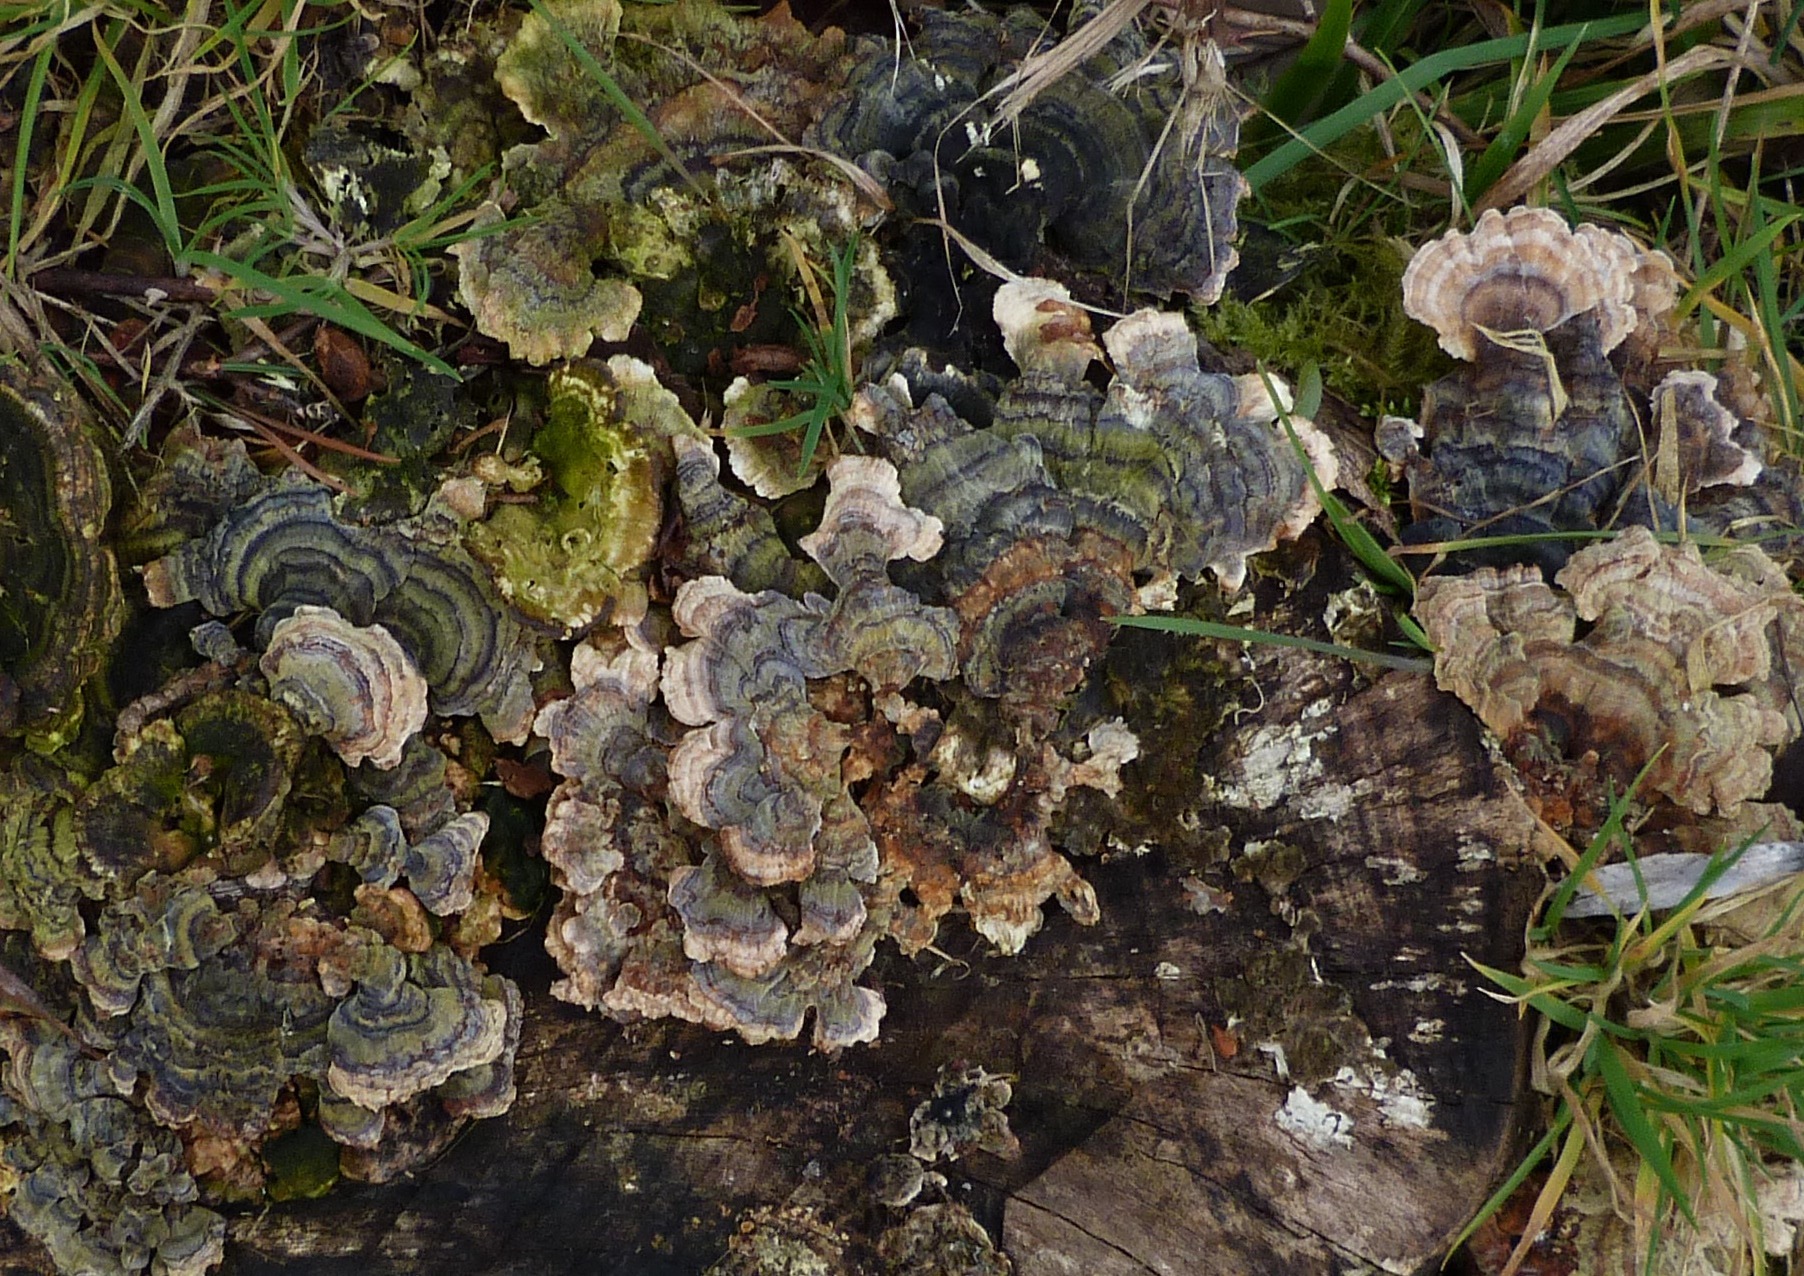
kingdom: Fungi
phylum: Basidiomycota
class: Agaricomycetes
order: Polyporales
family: Polyporaceae
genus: Trametes
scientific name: Trametes versicolor
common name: Turkeytail
